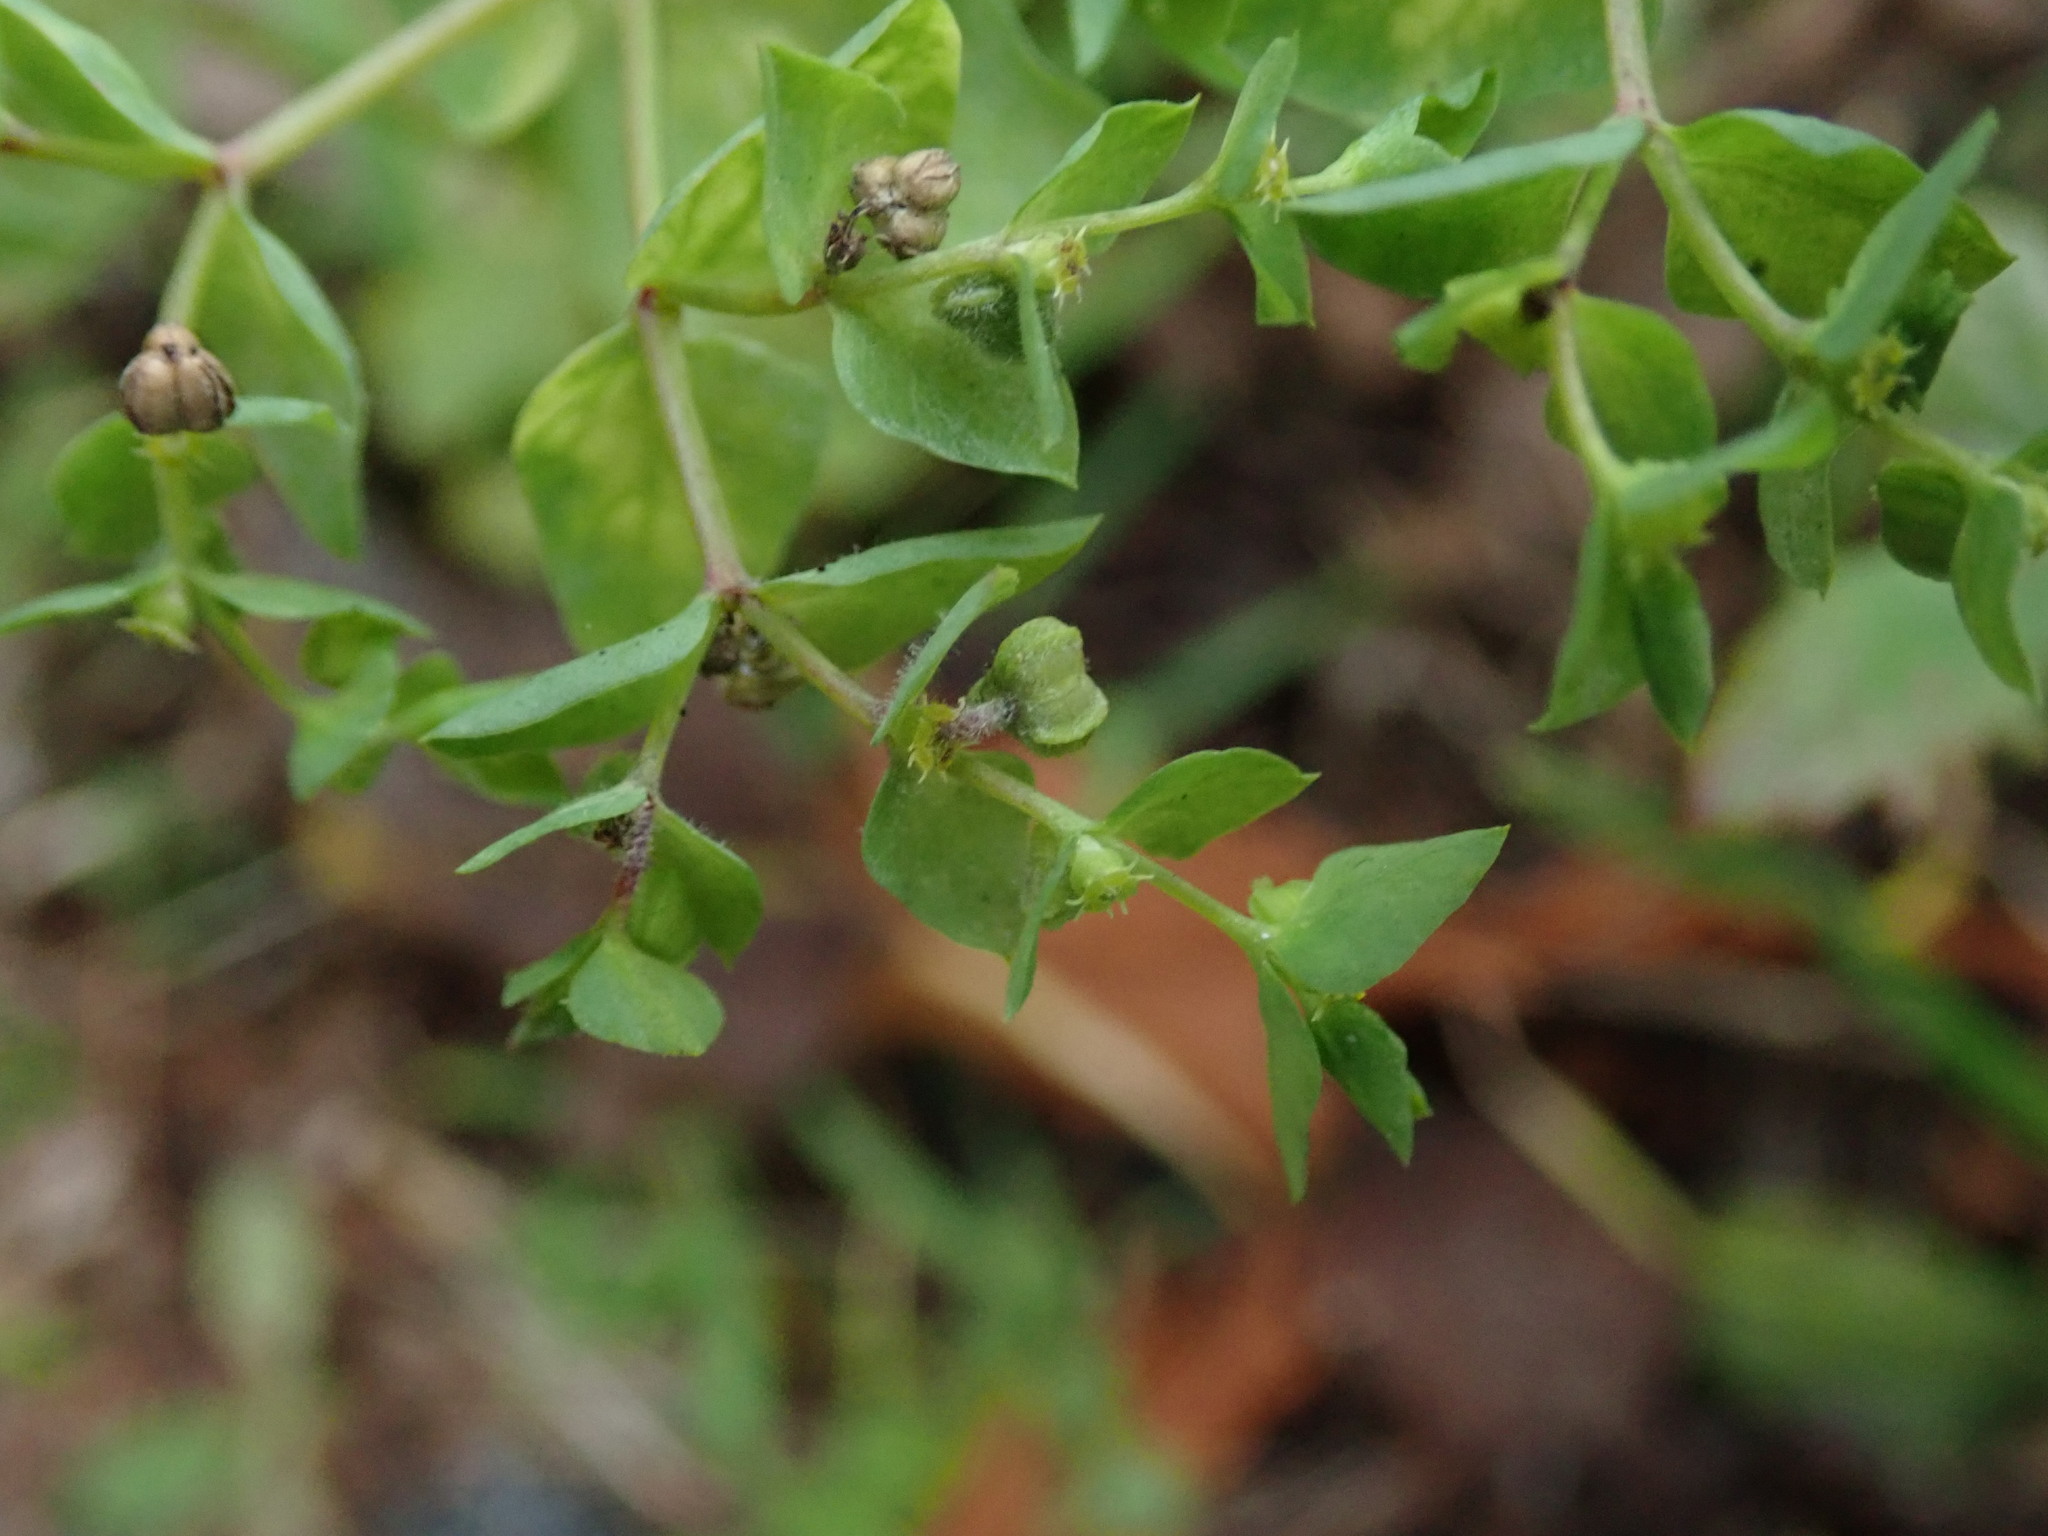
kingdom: Plantae
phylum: Tracheophyta
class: Magnoliopsida
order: Malpighiales
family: Euphorbiaceae
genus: Euphorbia
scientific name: Euphorbia peplus
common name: Petty spurge
